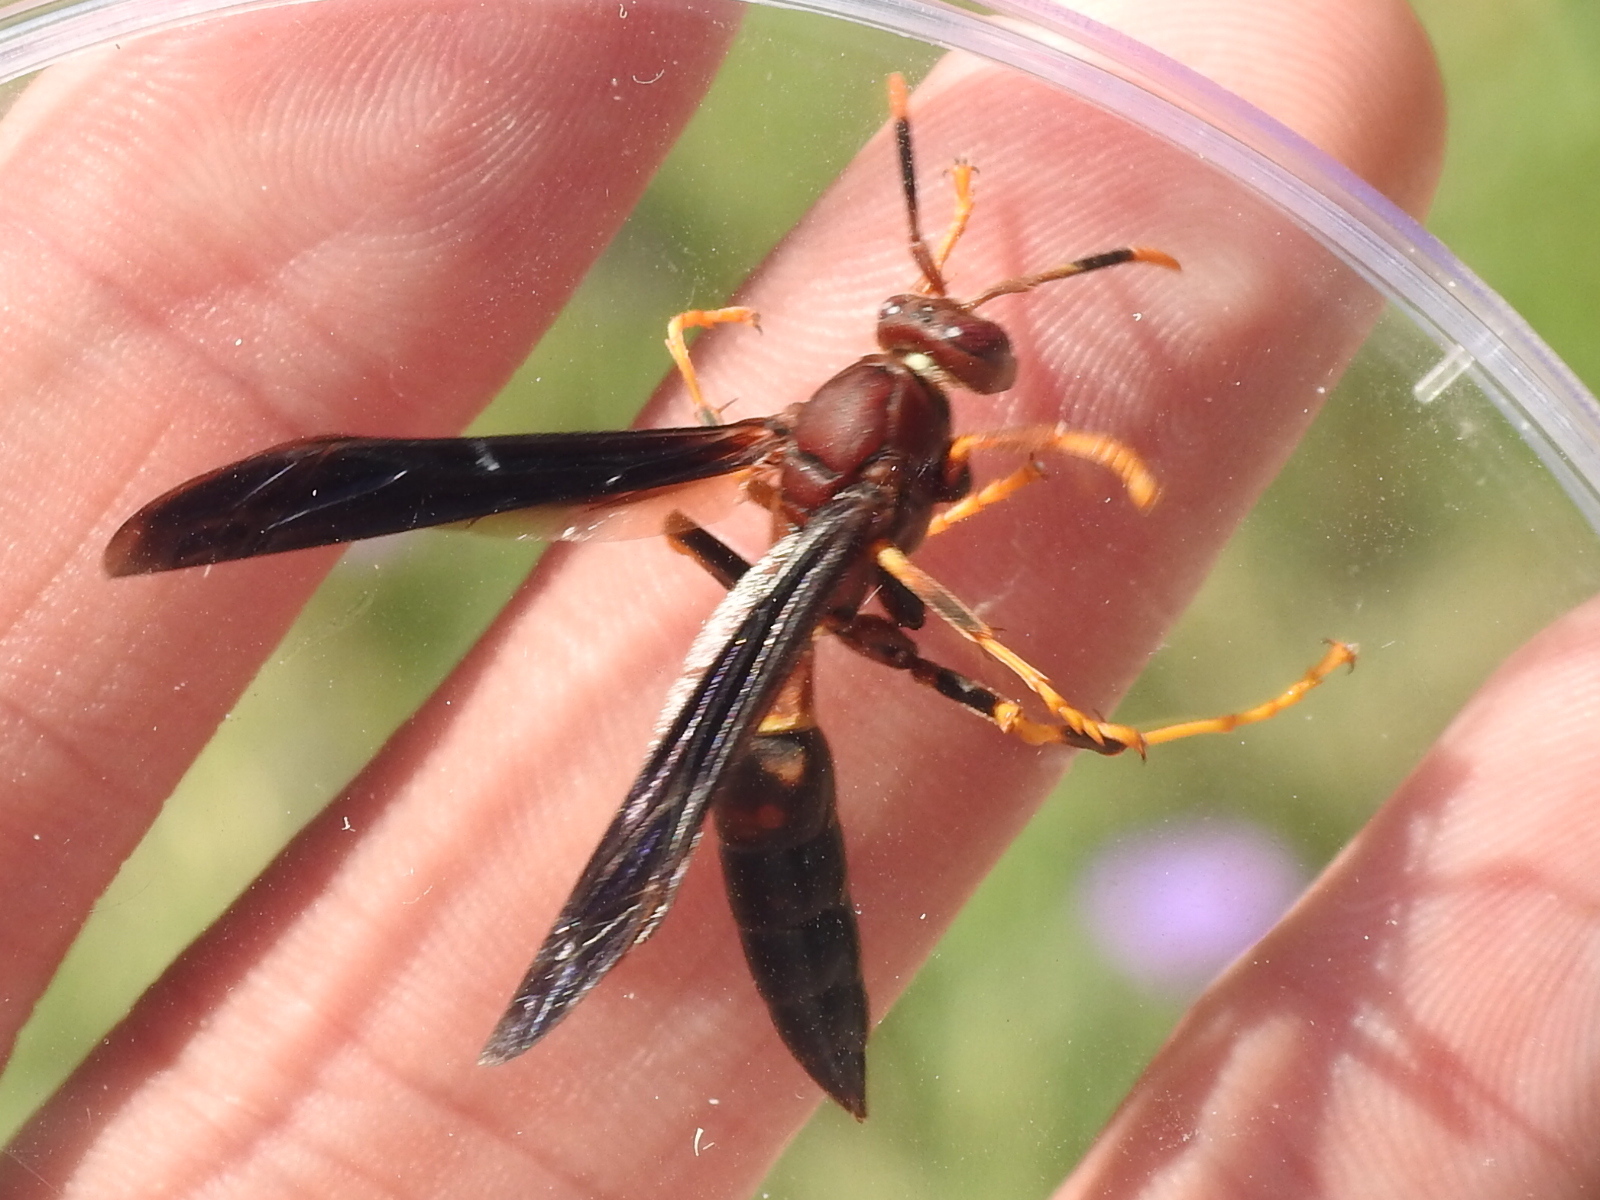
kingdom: Animalia
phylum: Arthropoda
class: Insecta
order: Hymenoptera
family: Eumenidae
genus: Polistes
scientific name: Polistes annularis
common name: Ringed paper wasp
